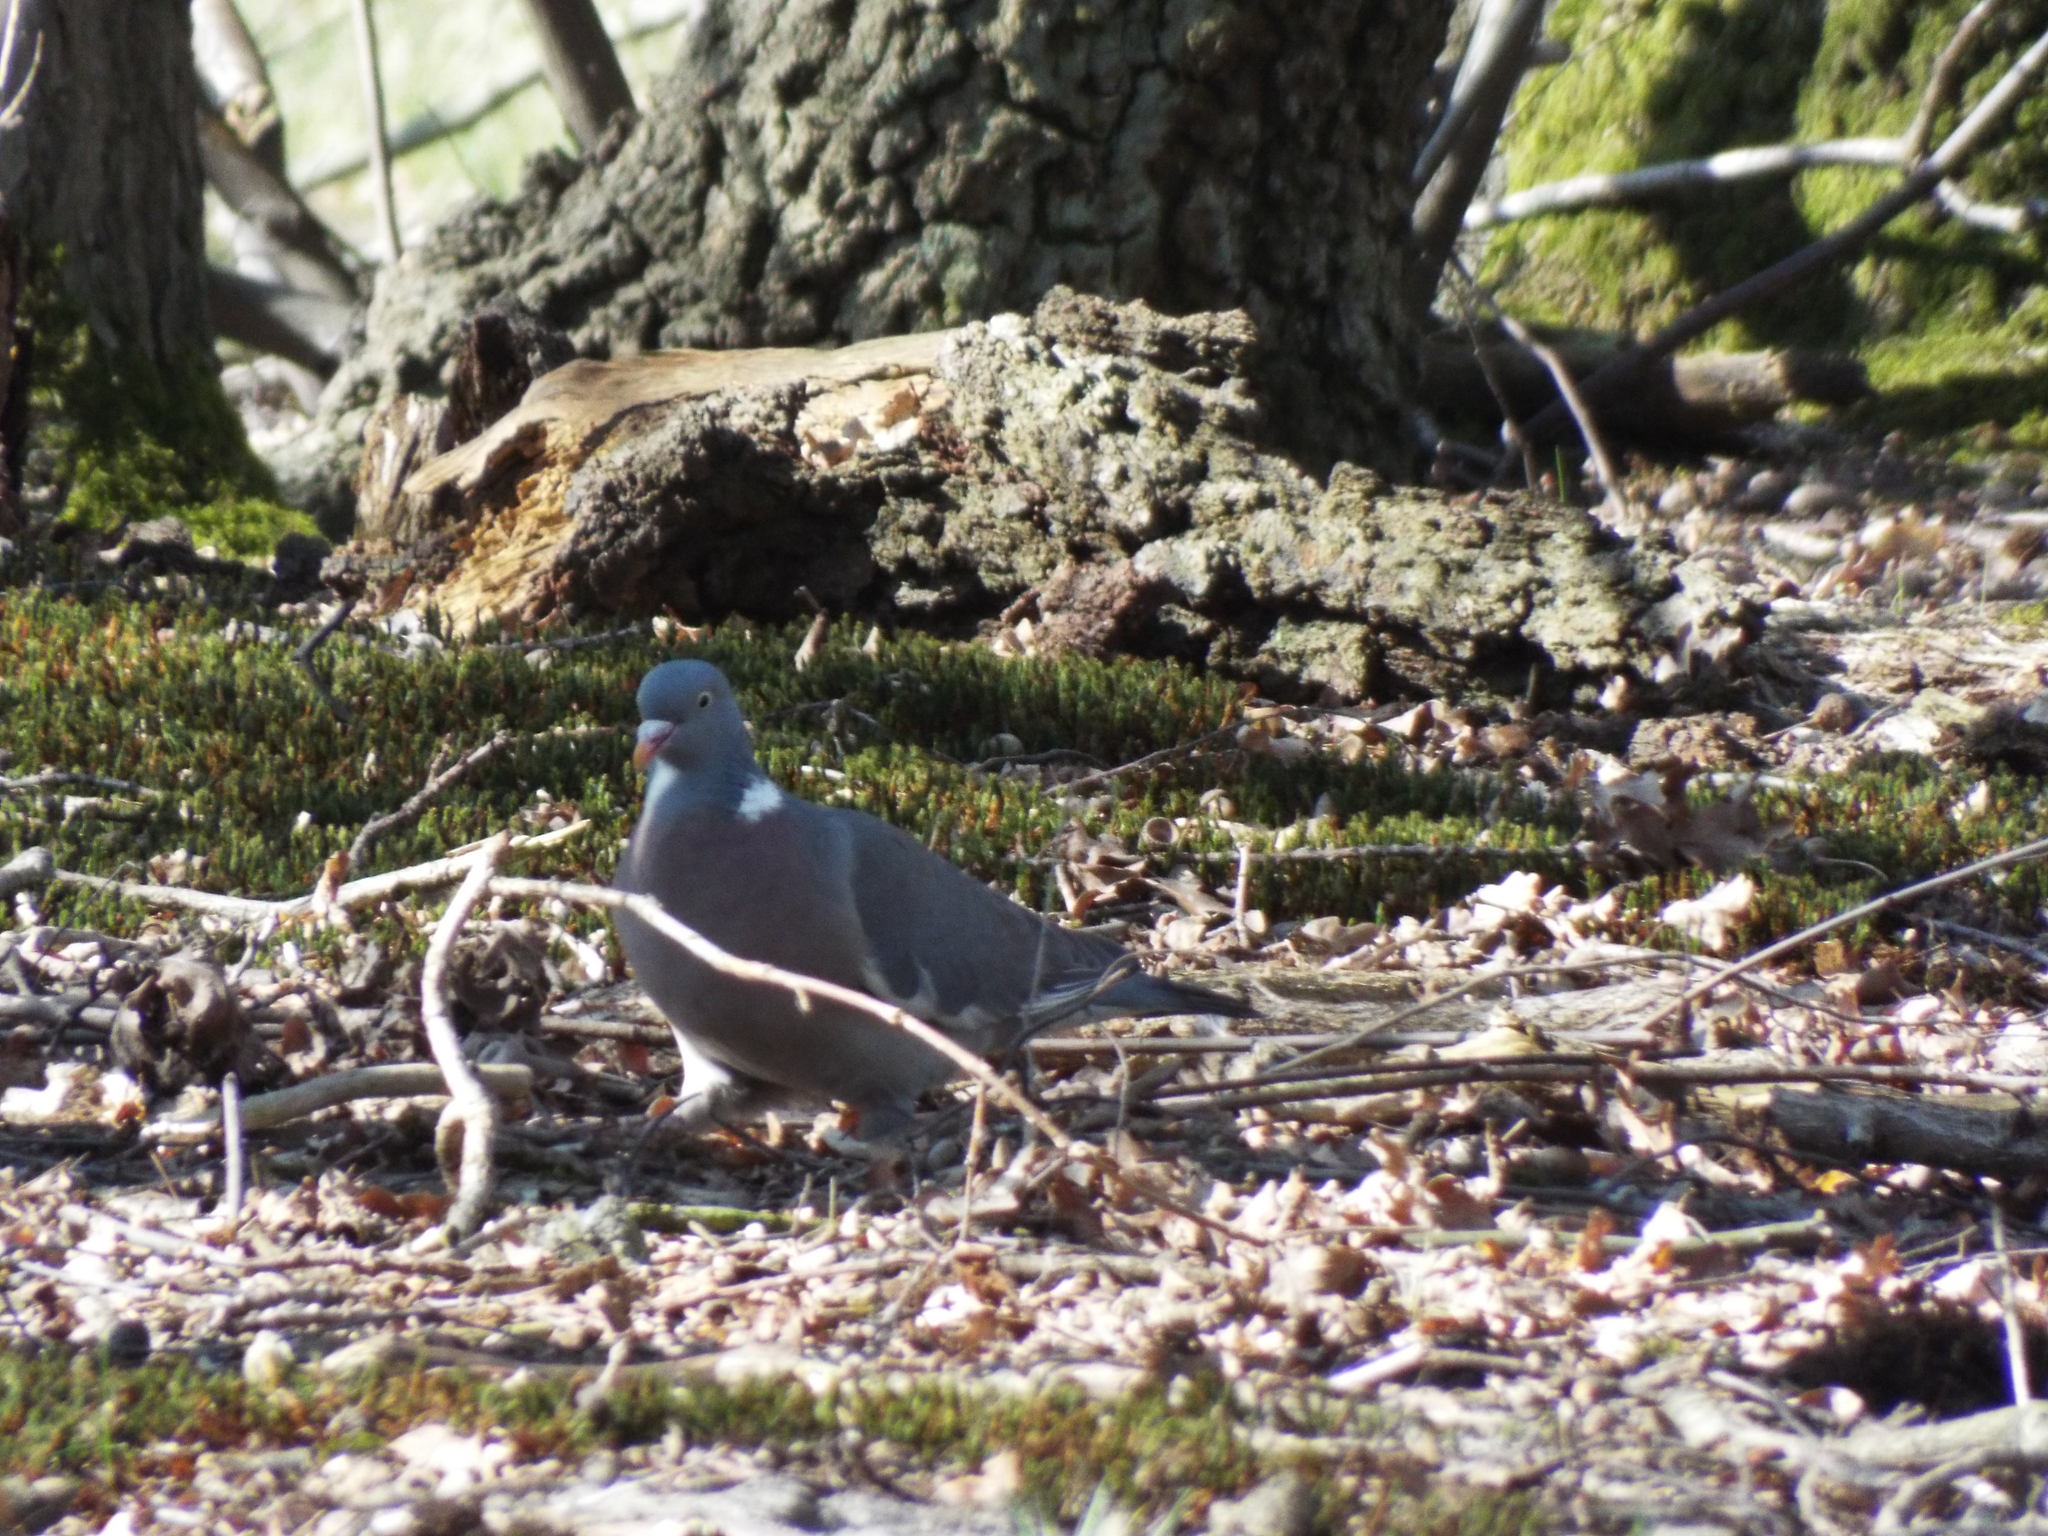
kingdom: Animalia
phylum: Chordata
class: Aves
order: Columbiformes
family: Columbidae
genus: Columba
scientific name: Columba palumbus
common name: Common wood pigeon
